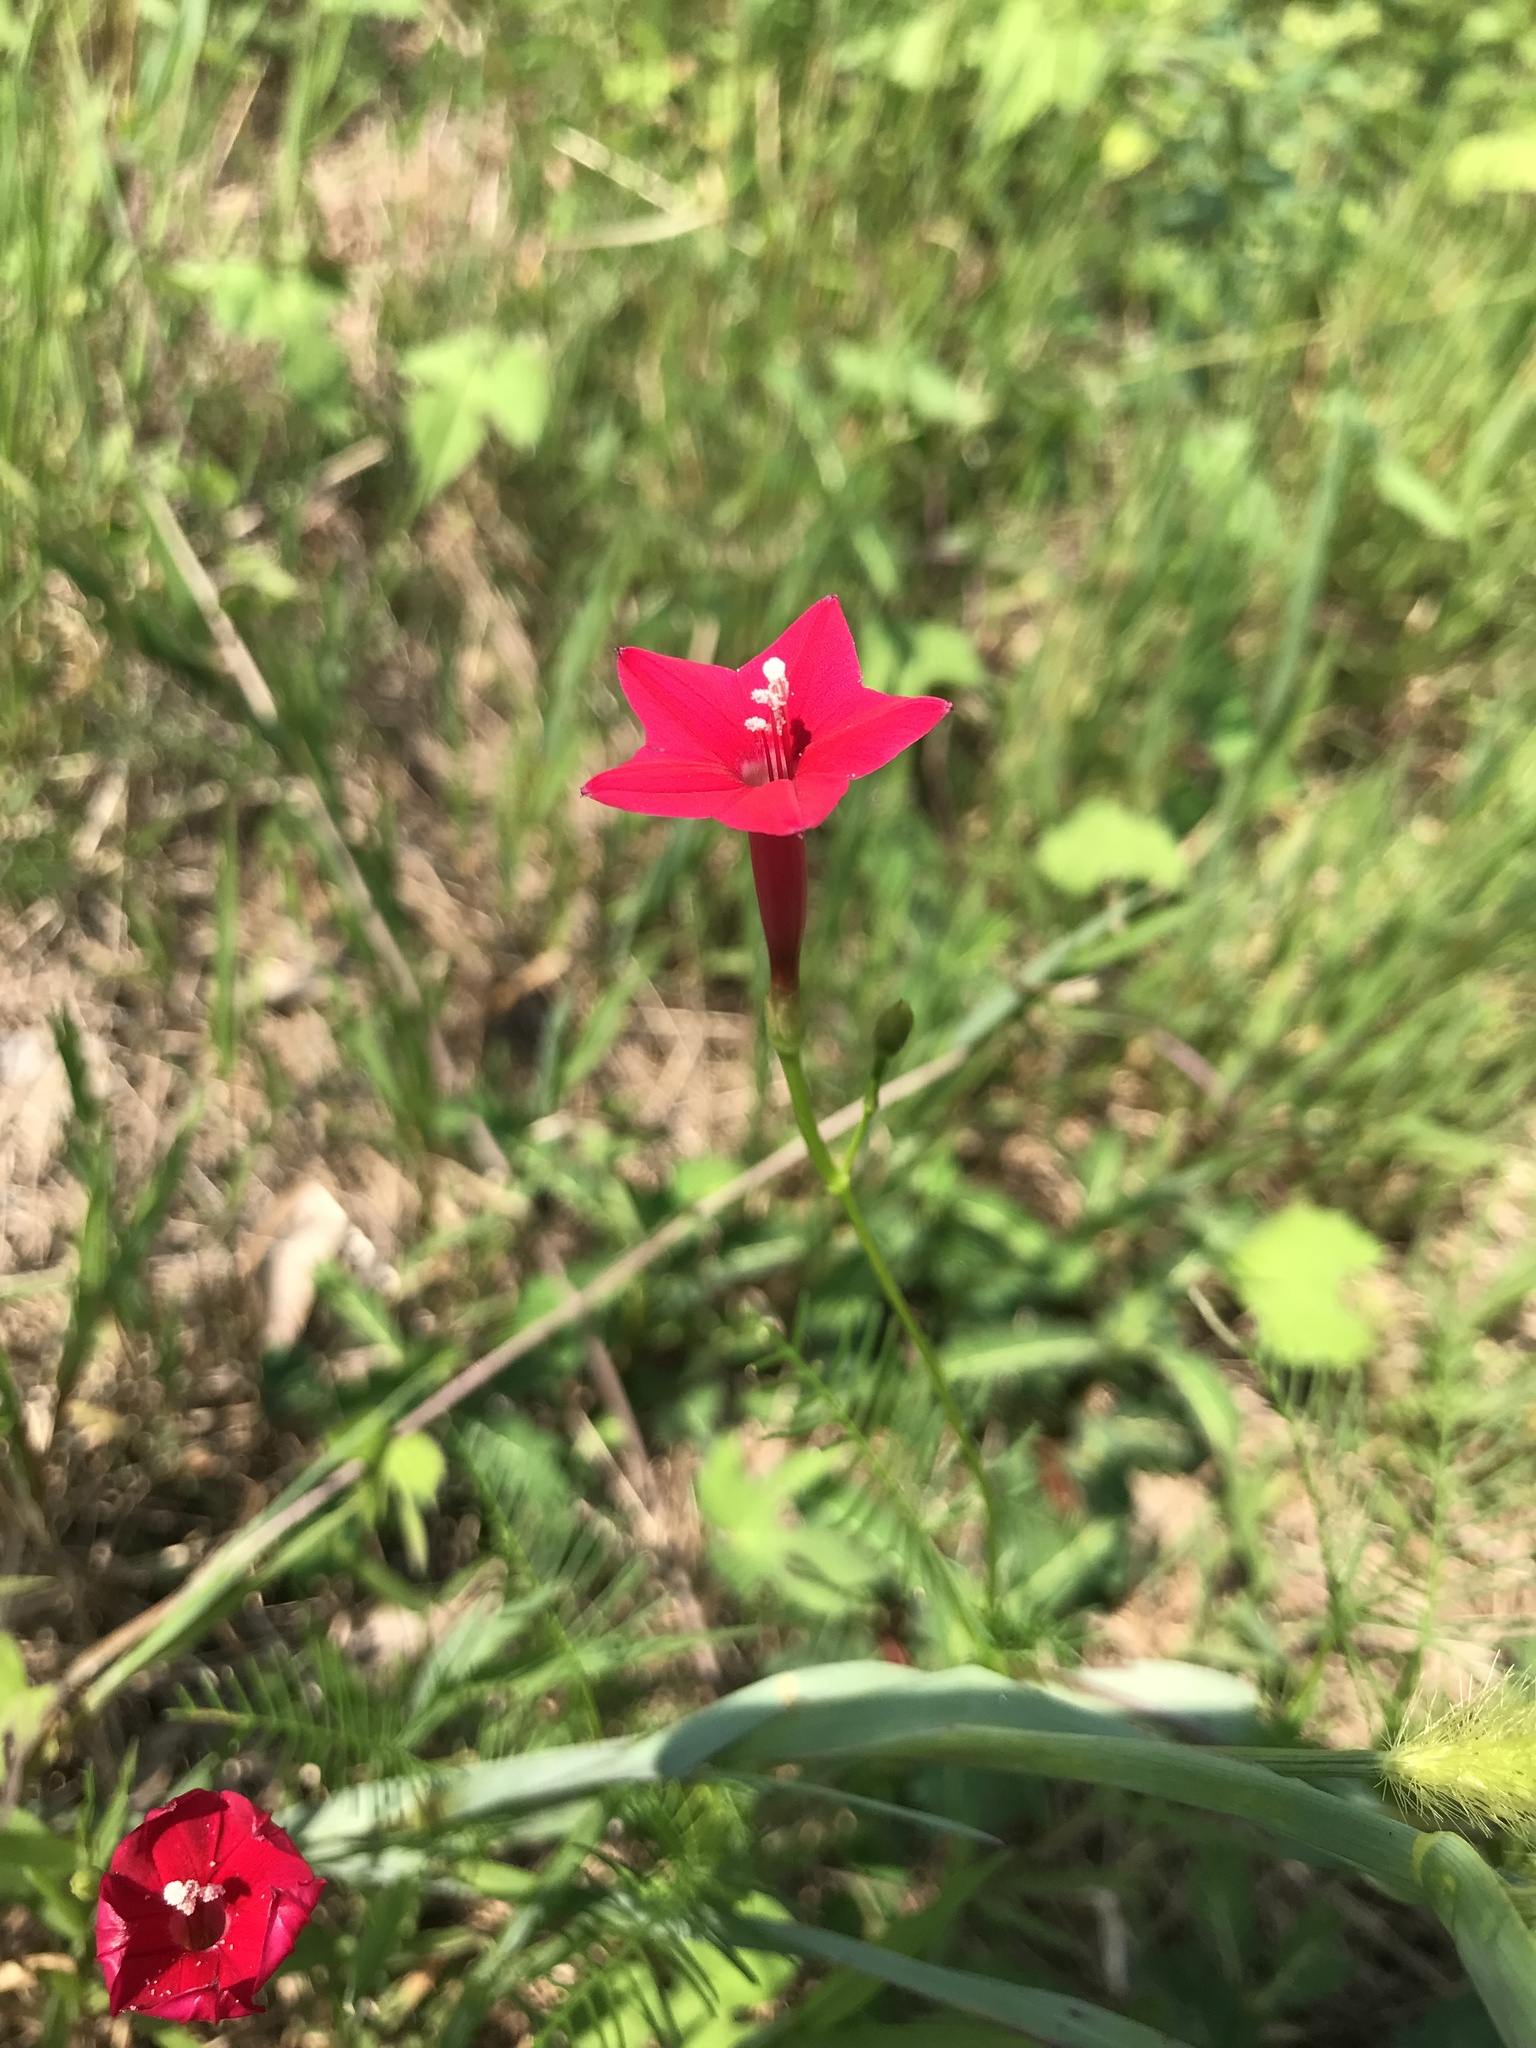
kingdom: Plantae
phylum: Tracheophyta
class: Magnoliopsida
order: Solanales
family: Convolvulaceae
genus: Ipomoea
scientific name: Ipomoea quamoclit
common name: Cypress vine
